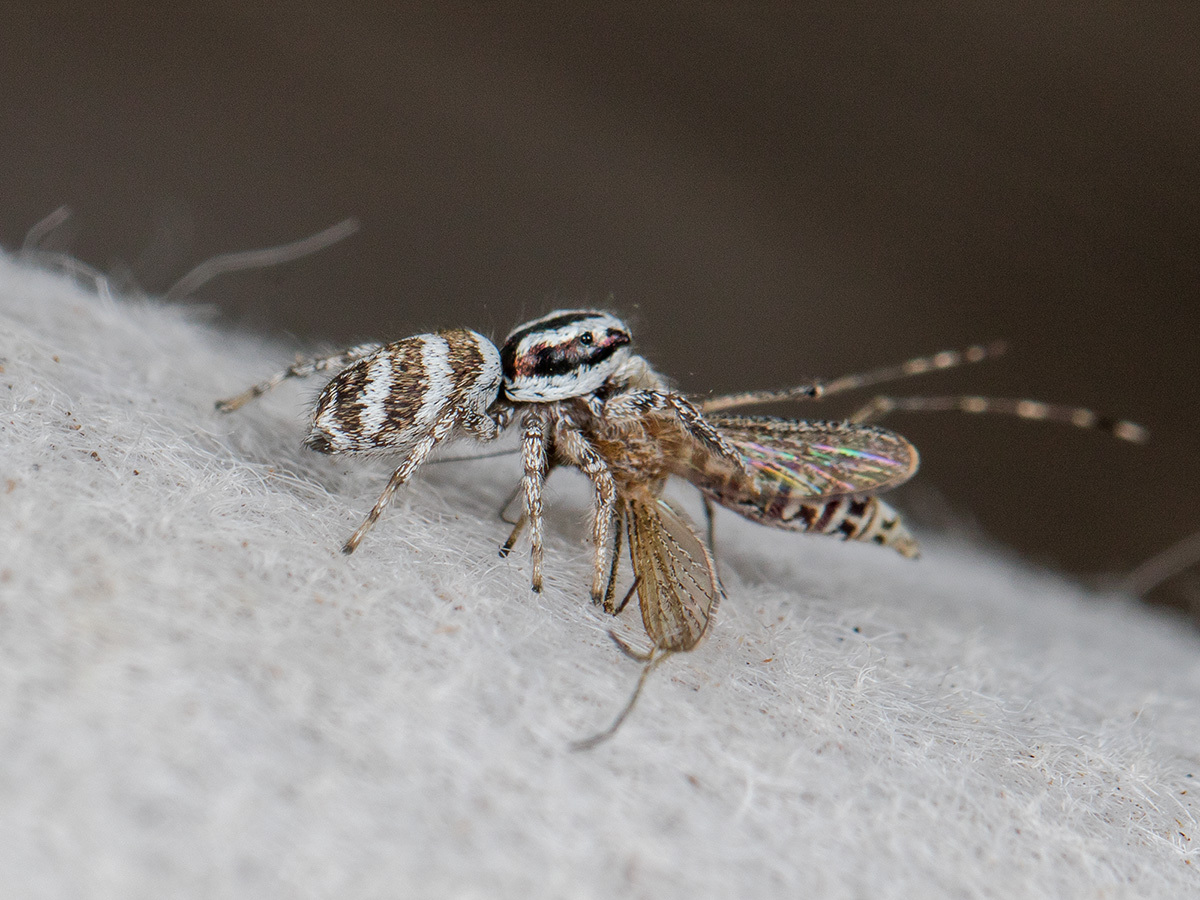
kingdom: Animalia
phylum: Arthropoda
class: Arachnida
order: Araneae
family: Salticidae
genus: Salticus
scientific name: Salticus tricinctus
